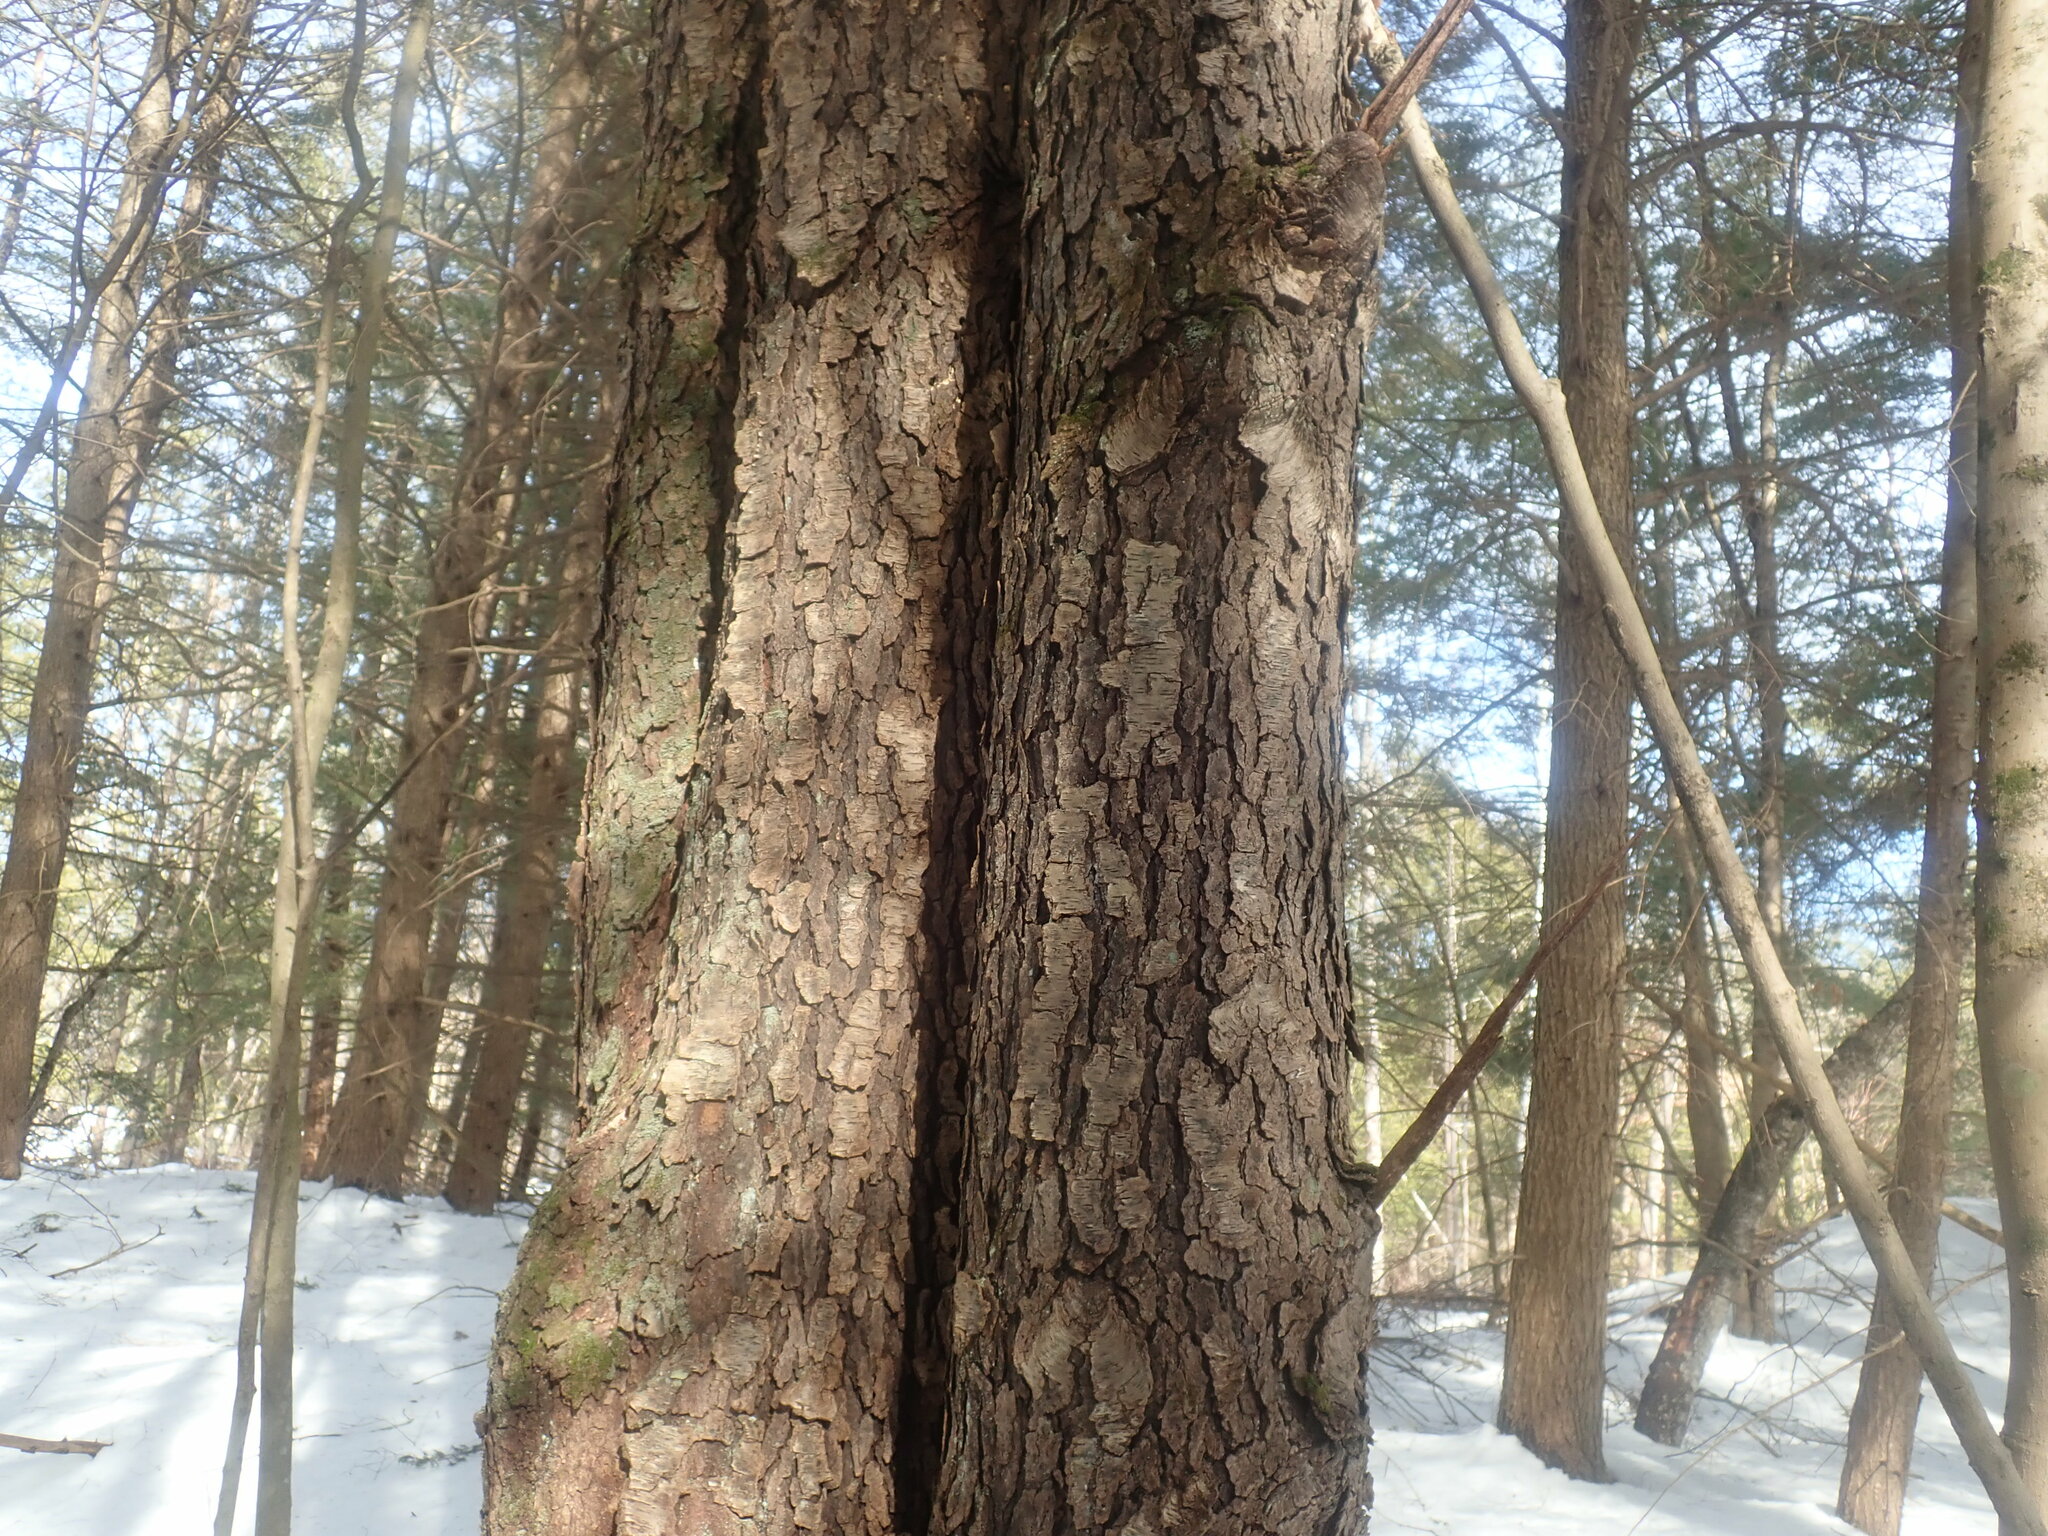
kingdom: Plantae
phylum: Tracheophyta
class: Magnoliopsida
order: Rosales
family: Rosaceae
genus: Prunus
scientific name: Prunus serotina
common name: Black cherry
